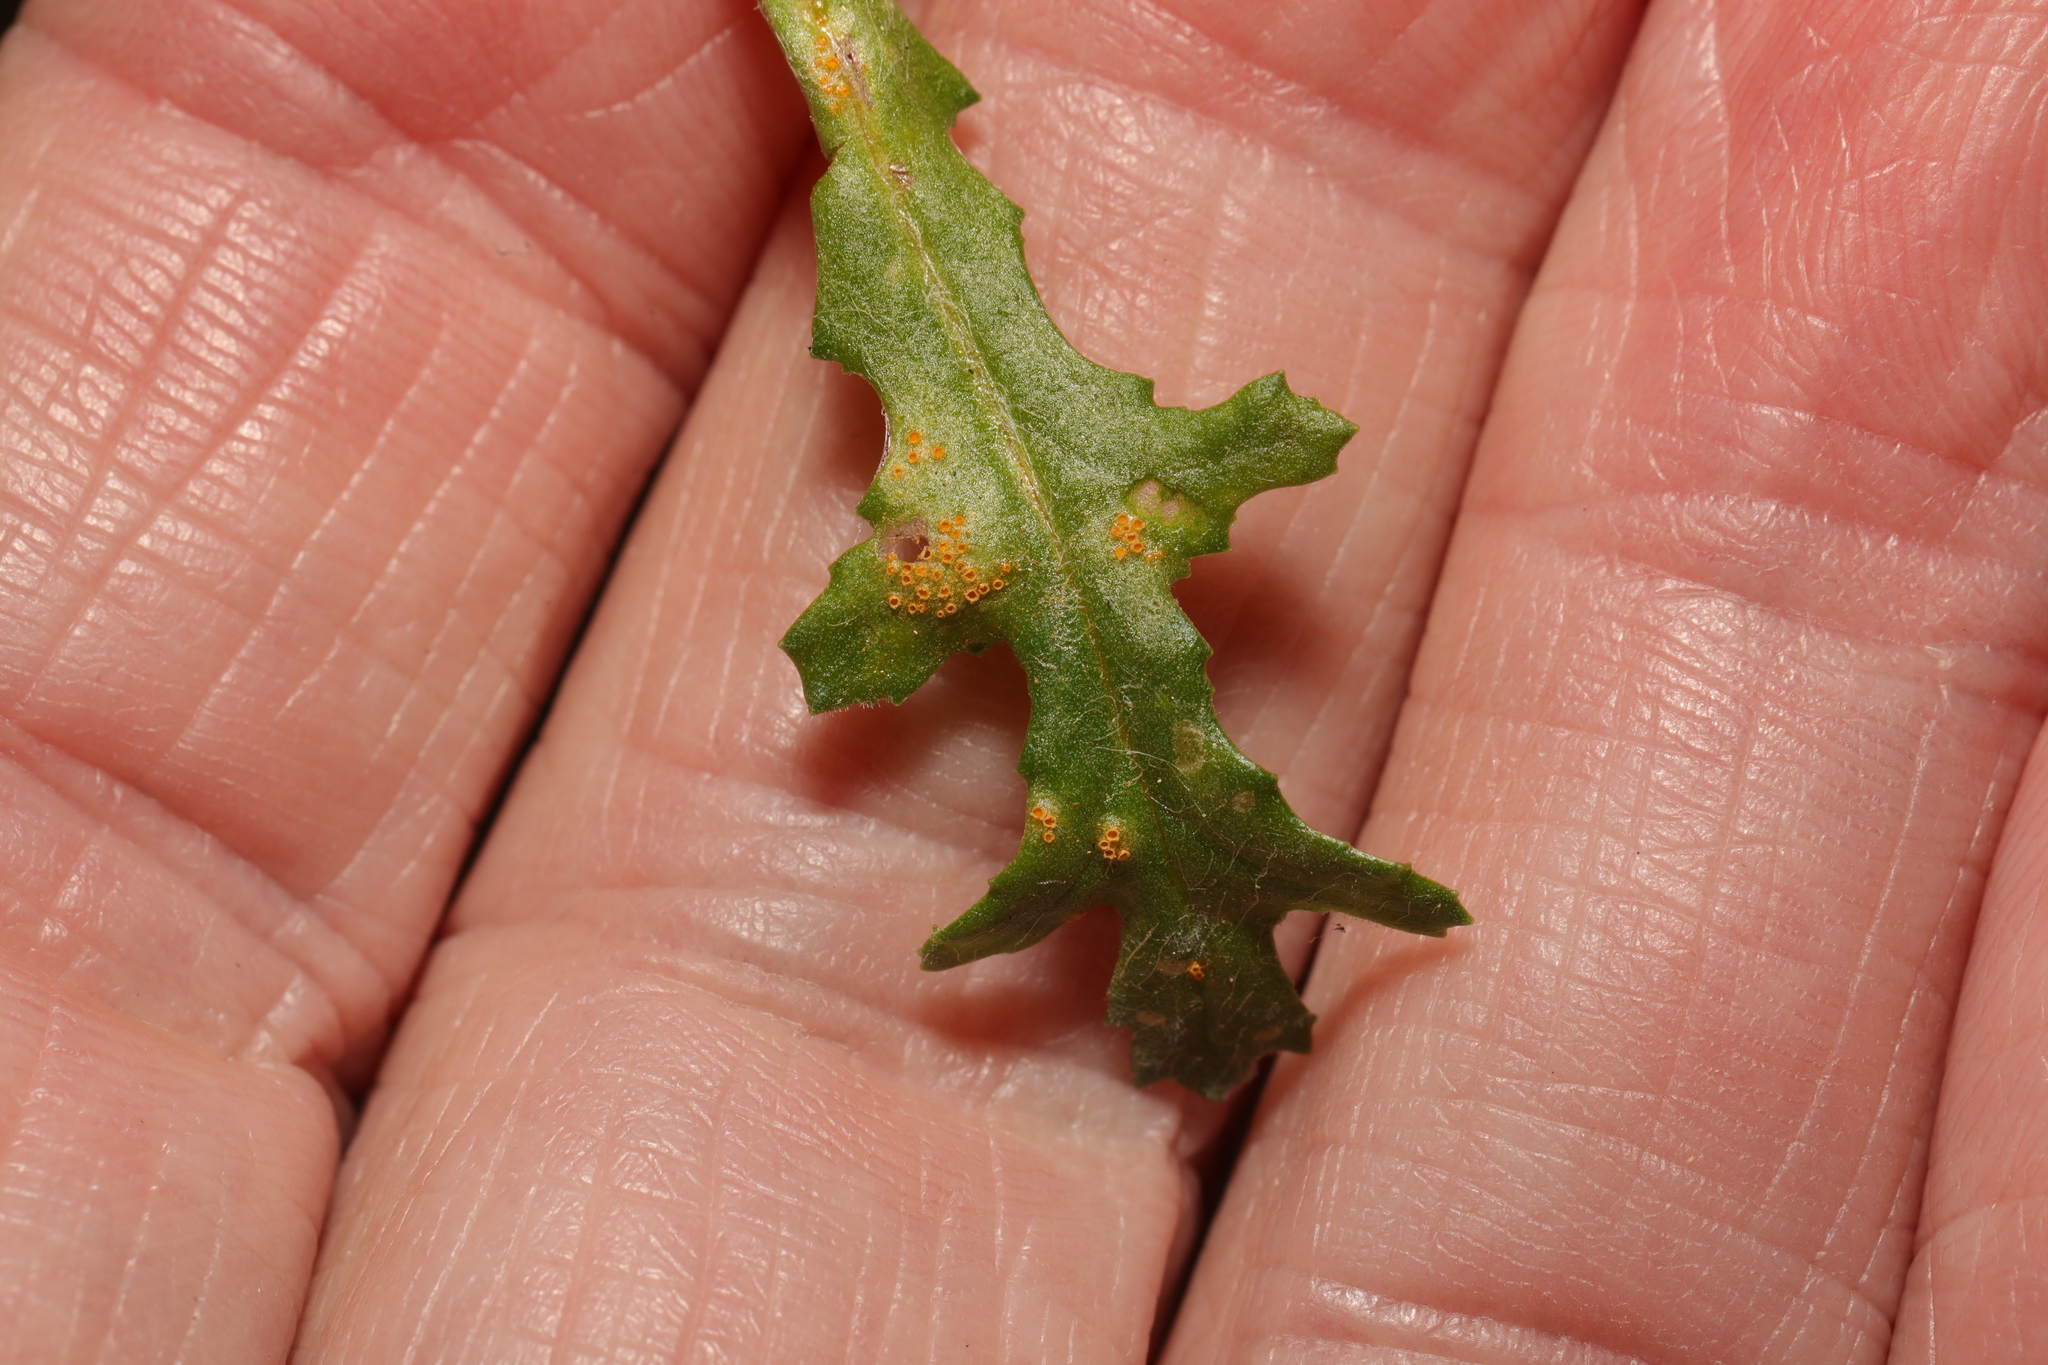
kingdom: Fungi
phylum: Basidiomycota
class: Pucciniomycetes
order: Pucciniales
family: Pucciniaceae
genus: Puccinia
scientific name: Puccinia lagenophorae
